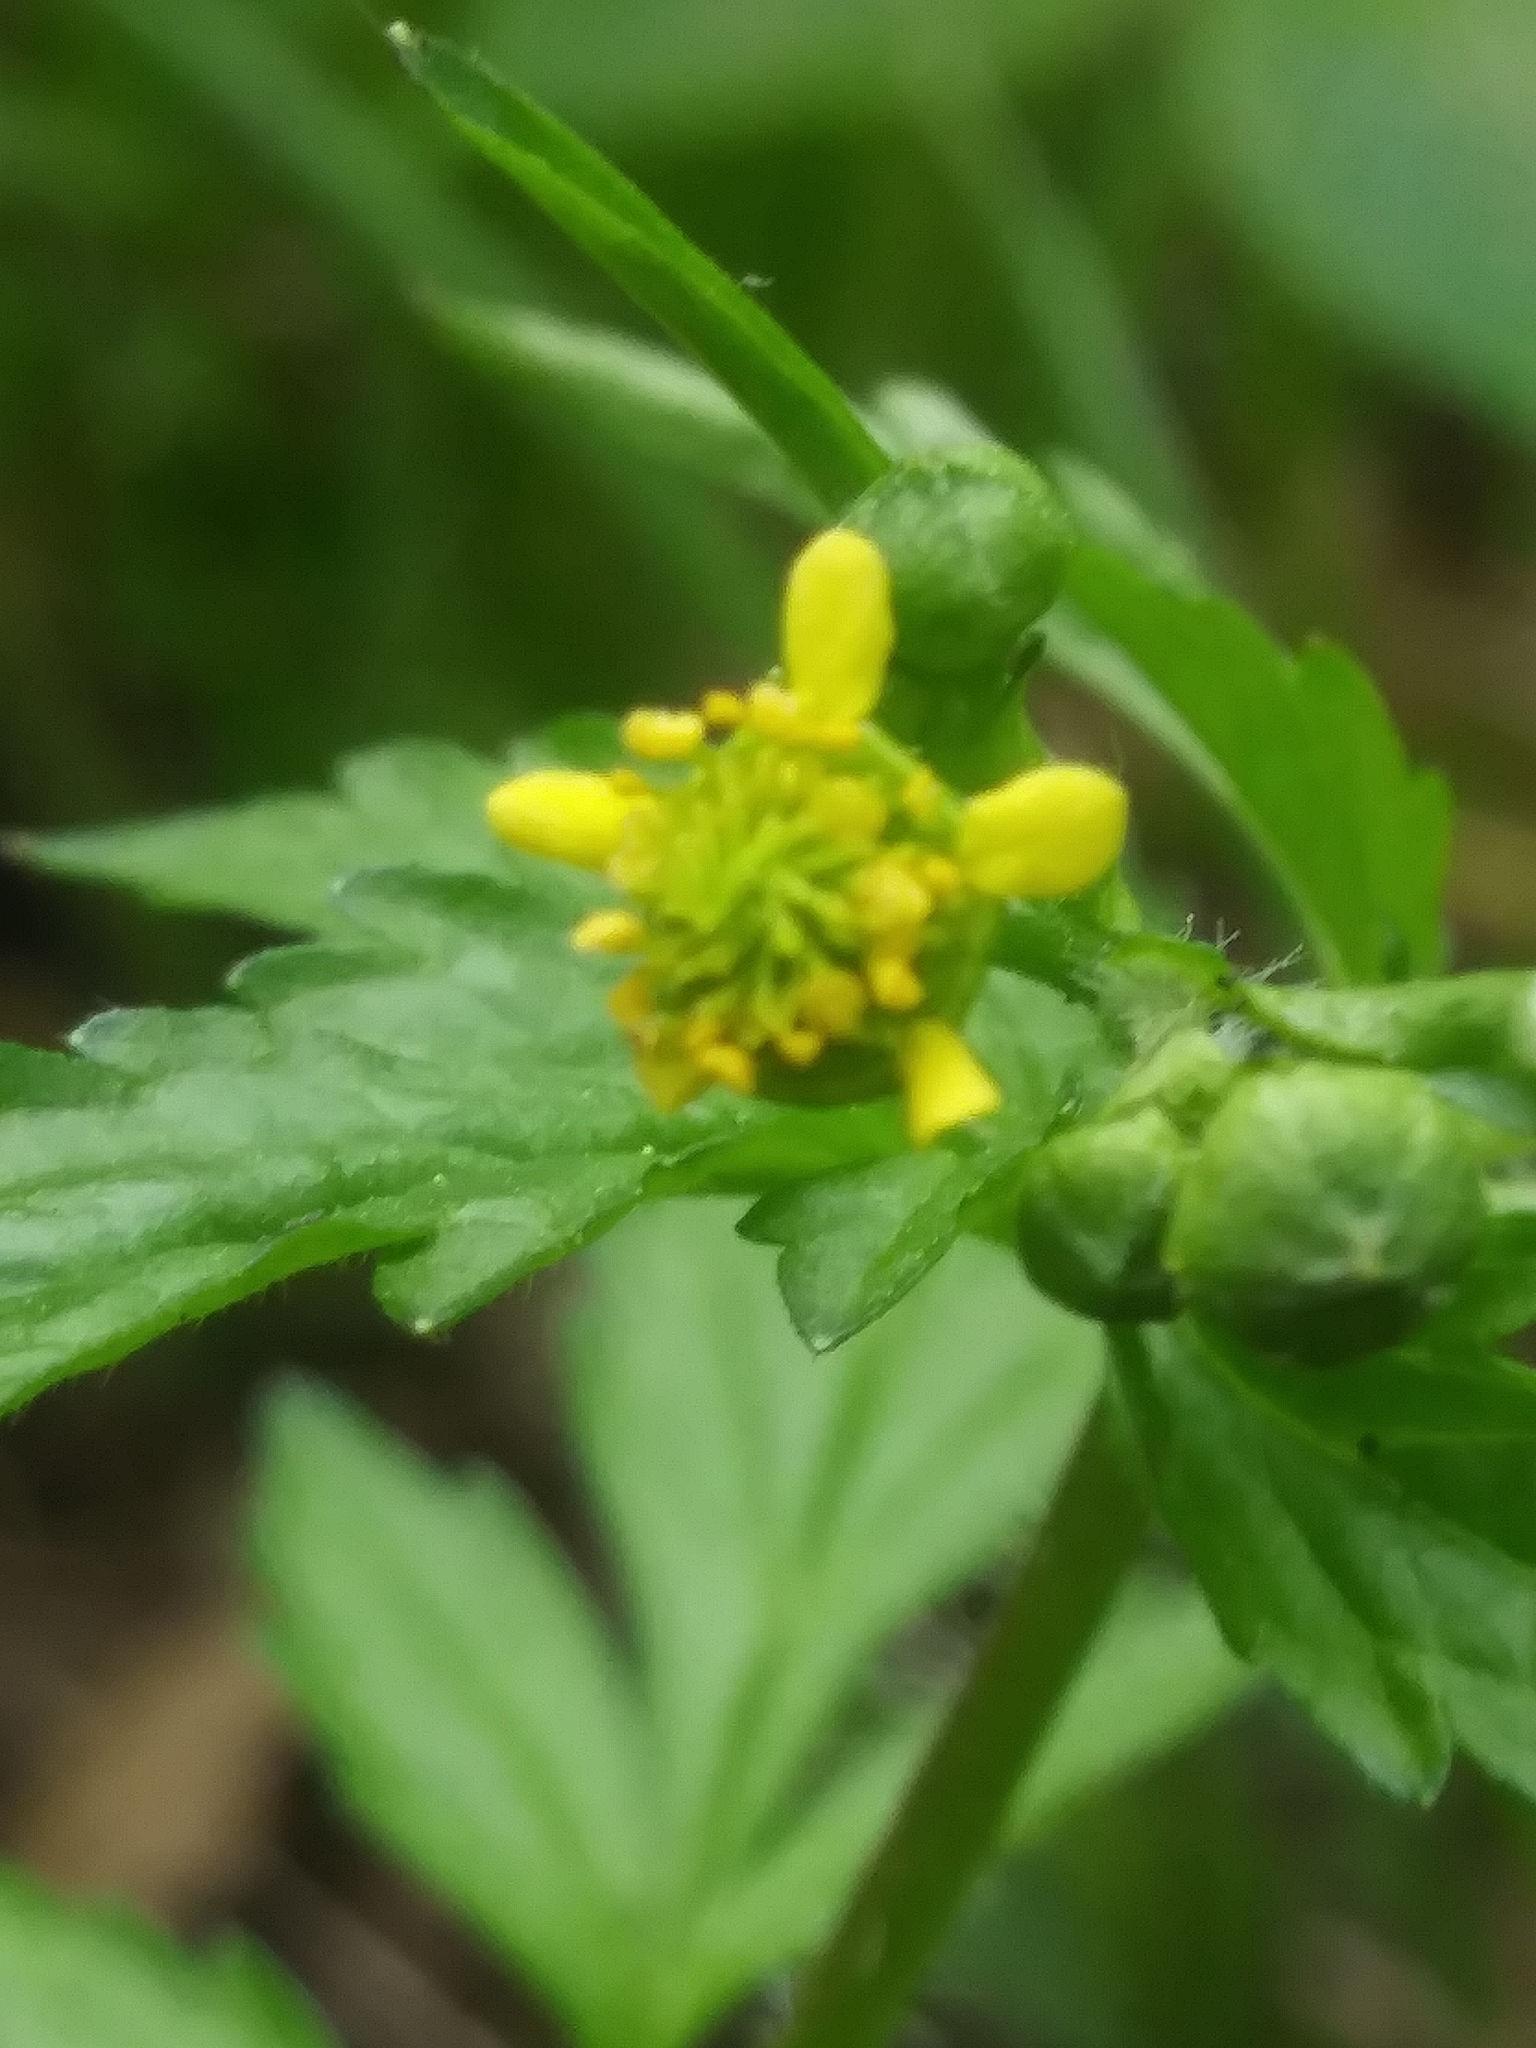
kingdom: Plantae
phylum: Tracheophyta
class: Magnoliopsida
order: Rosales
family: Rosaceae
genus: Geum
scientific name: Geum vernum
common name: Spring avens
